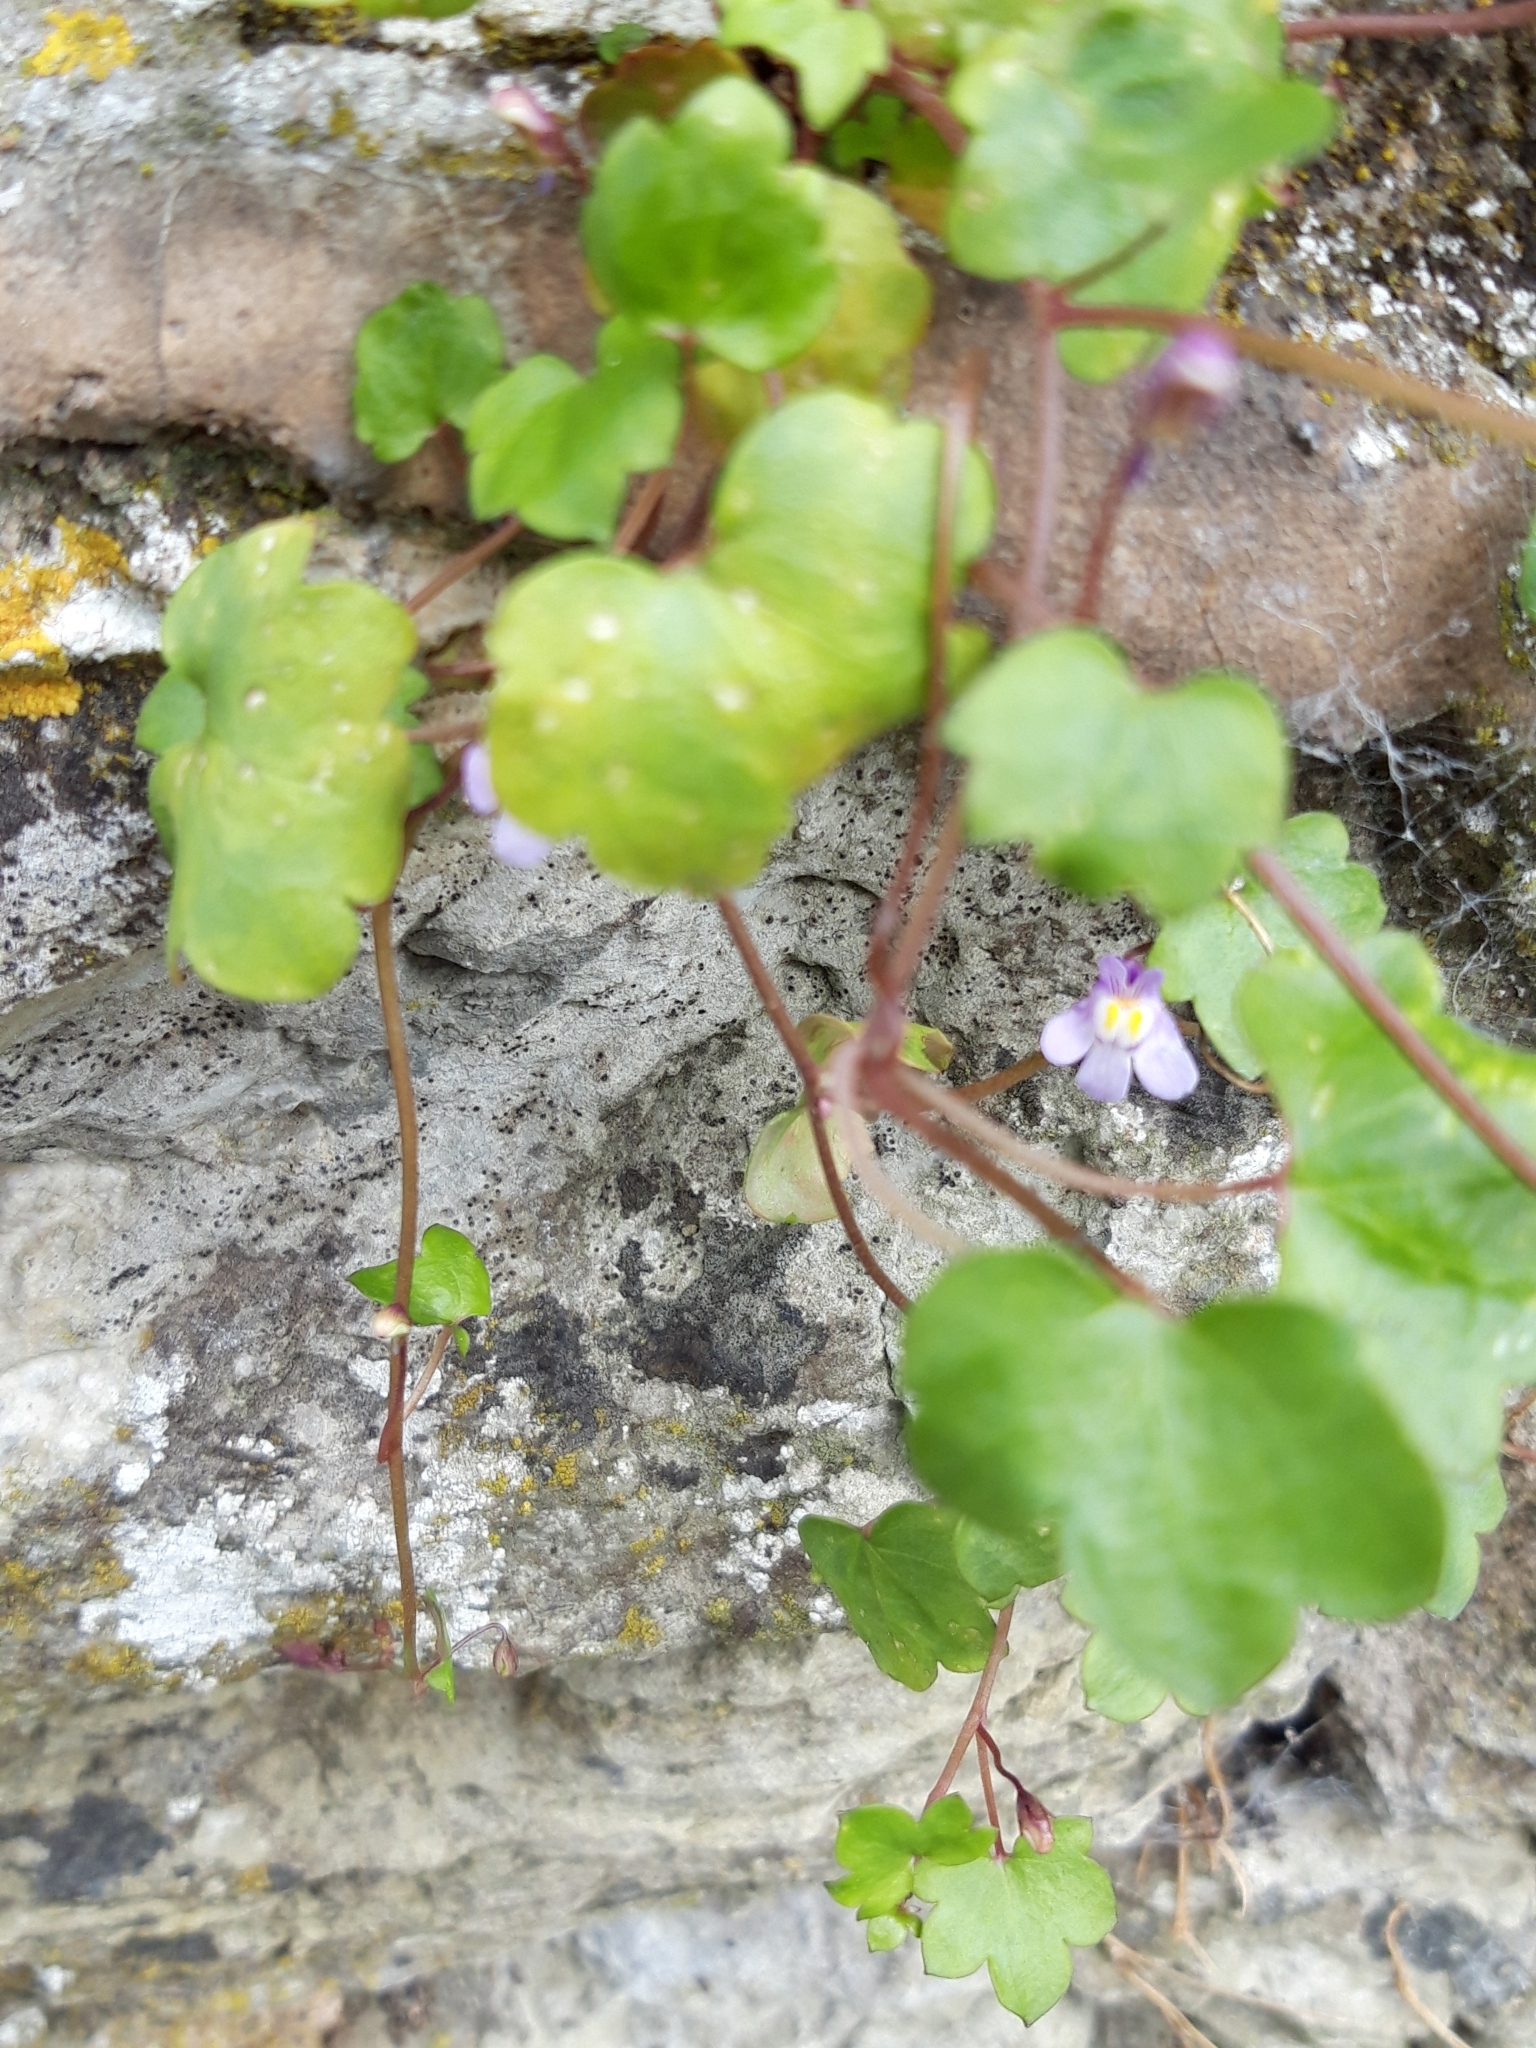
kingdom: Plantae
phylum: Tracheophyta
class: Magnoliopsida
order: Lamiales
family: Plantaginaceae
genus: Cymbalaria
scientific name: Cymbalaria muralis
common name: Ivy-leaved toadflax
